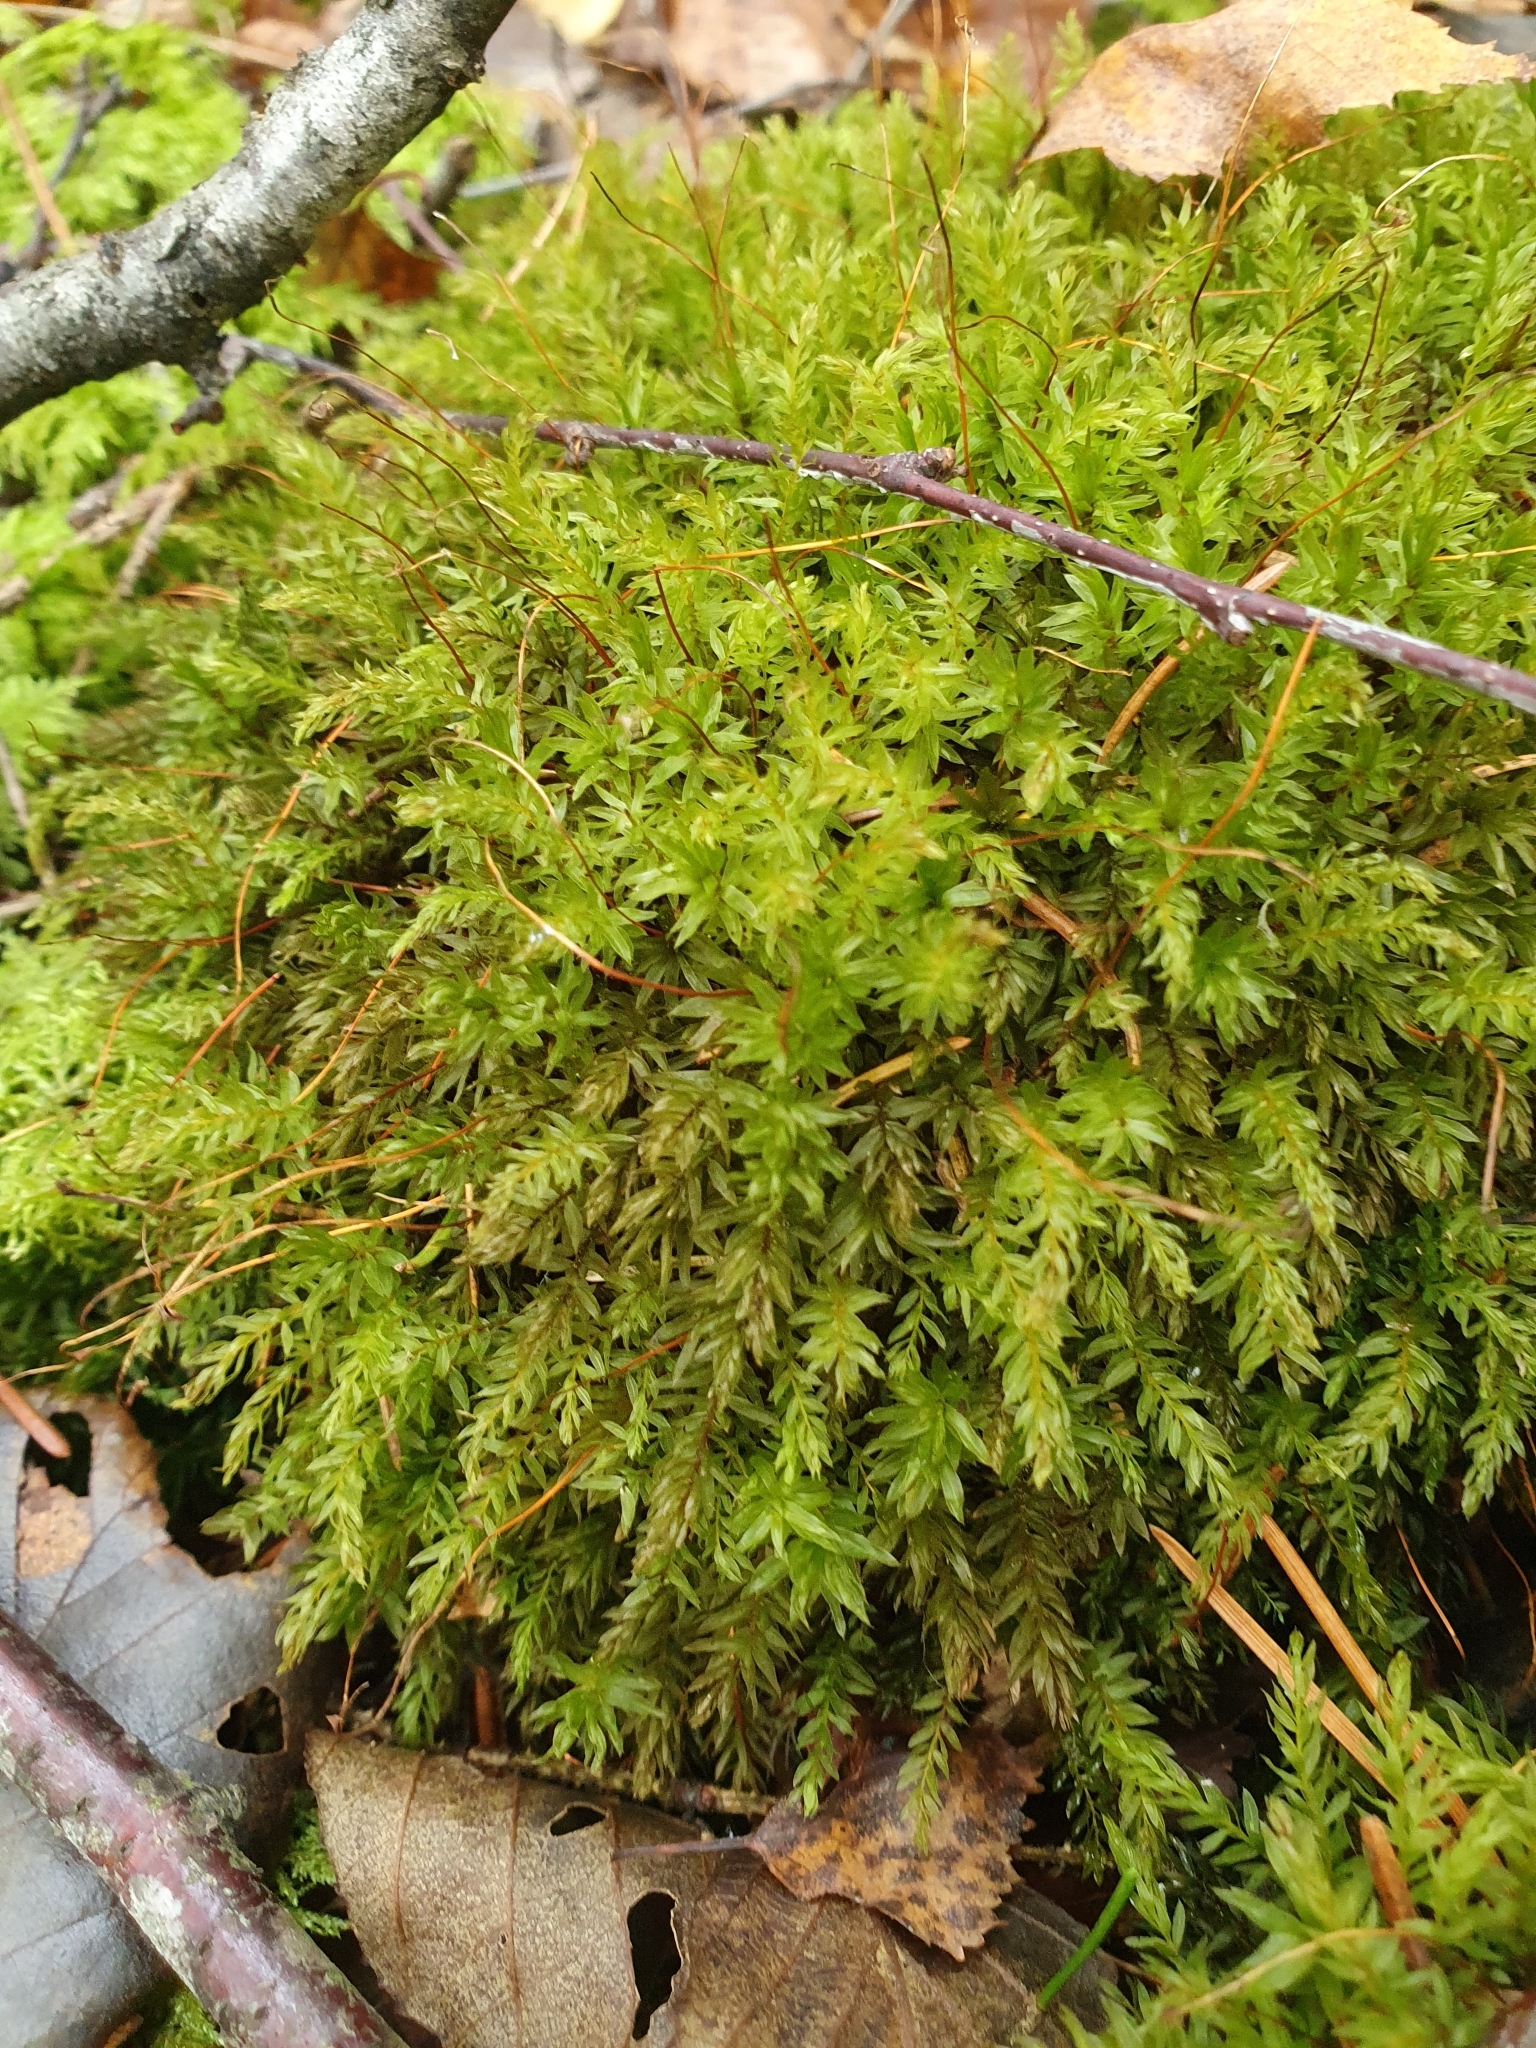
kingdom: Plantae
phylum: Bryophyta
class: Bryopsida
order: Bryales
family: Mniaceae
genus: Mnium
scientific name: Mnium hornum
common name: Swan's-neck leafy moss
